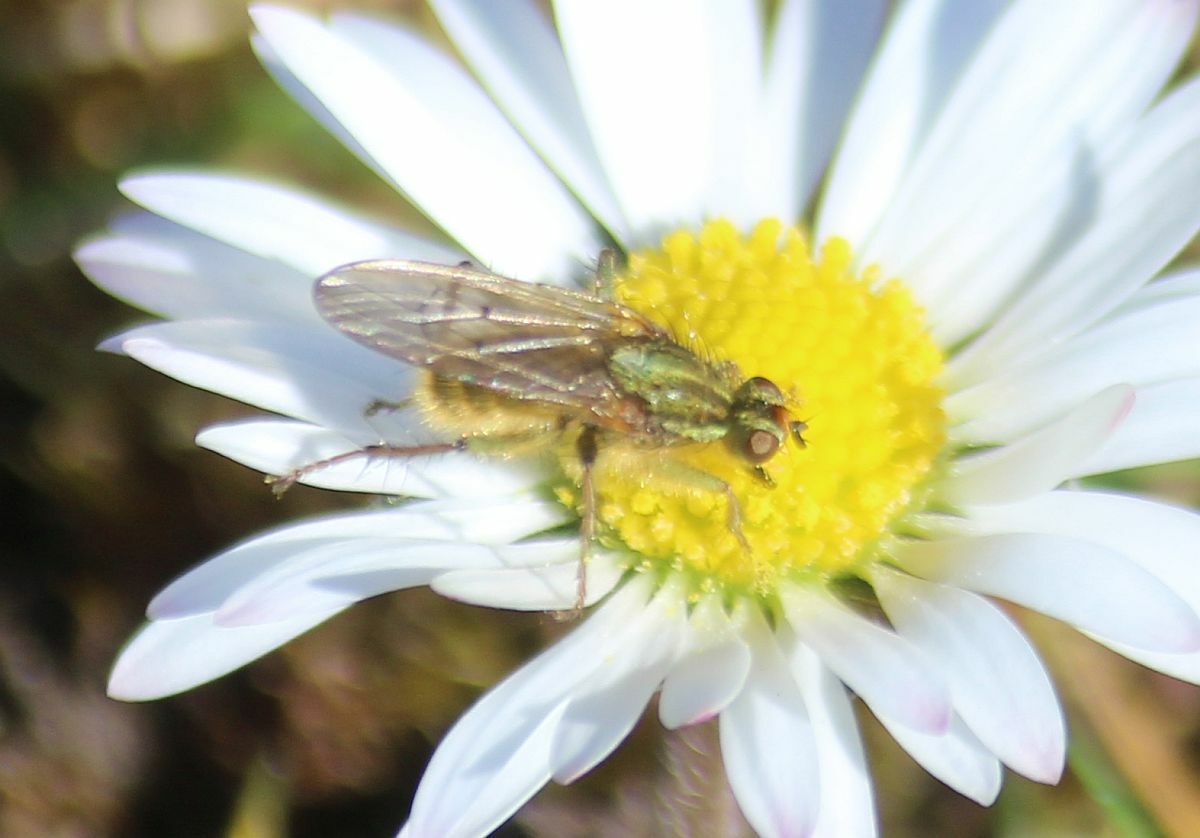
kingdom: Animalia
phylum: Arthropoda
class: Insecta
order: Diptera
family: Scathophagidae
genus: Scathophaga
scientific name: Scathophaga stercoraria
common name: Yellow dung fly
